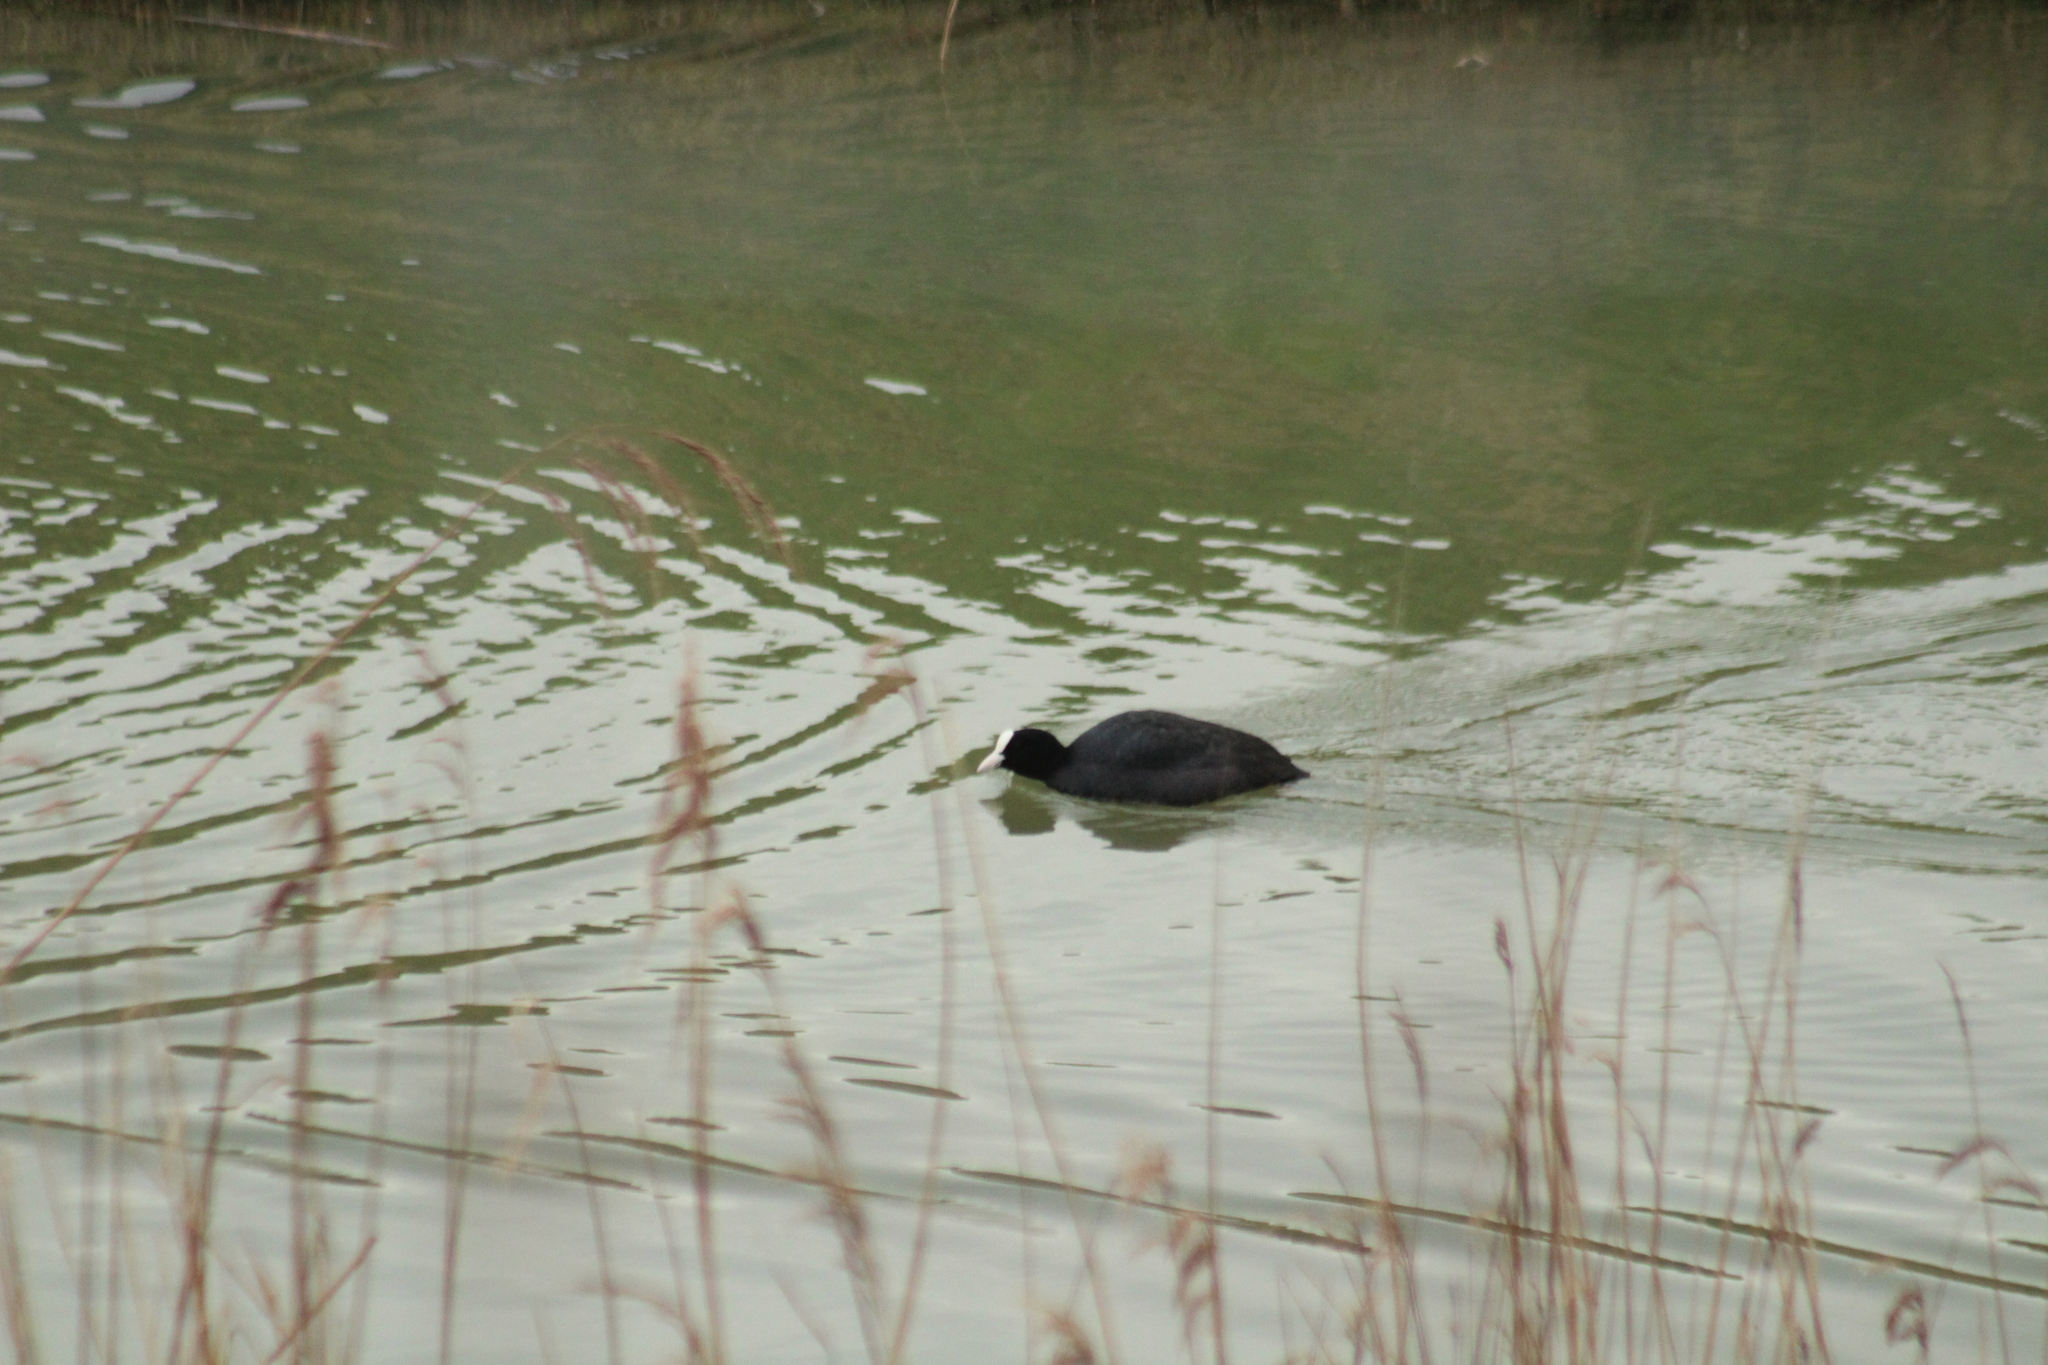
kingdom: Animalia
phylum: Chordata
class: Aves
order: Gruiformes
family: Rallidae
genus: Fulica
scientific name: Fulica atra
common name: Eurasian coot
